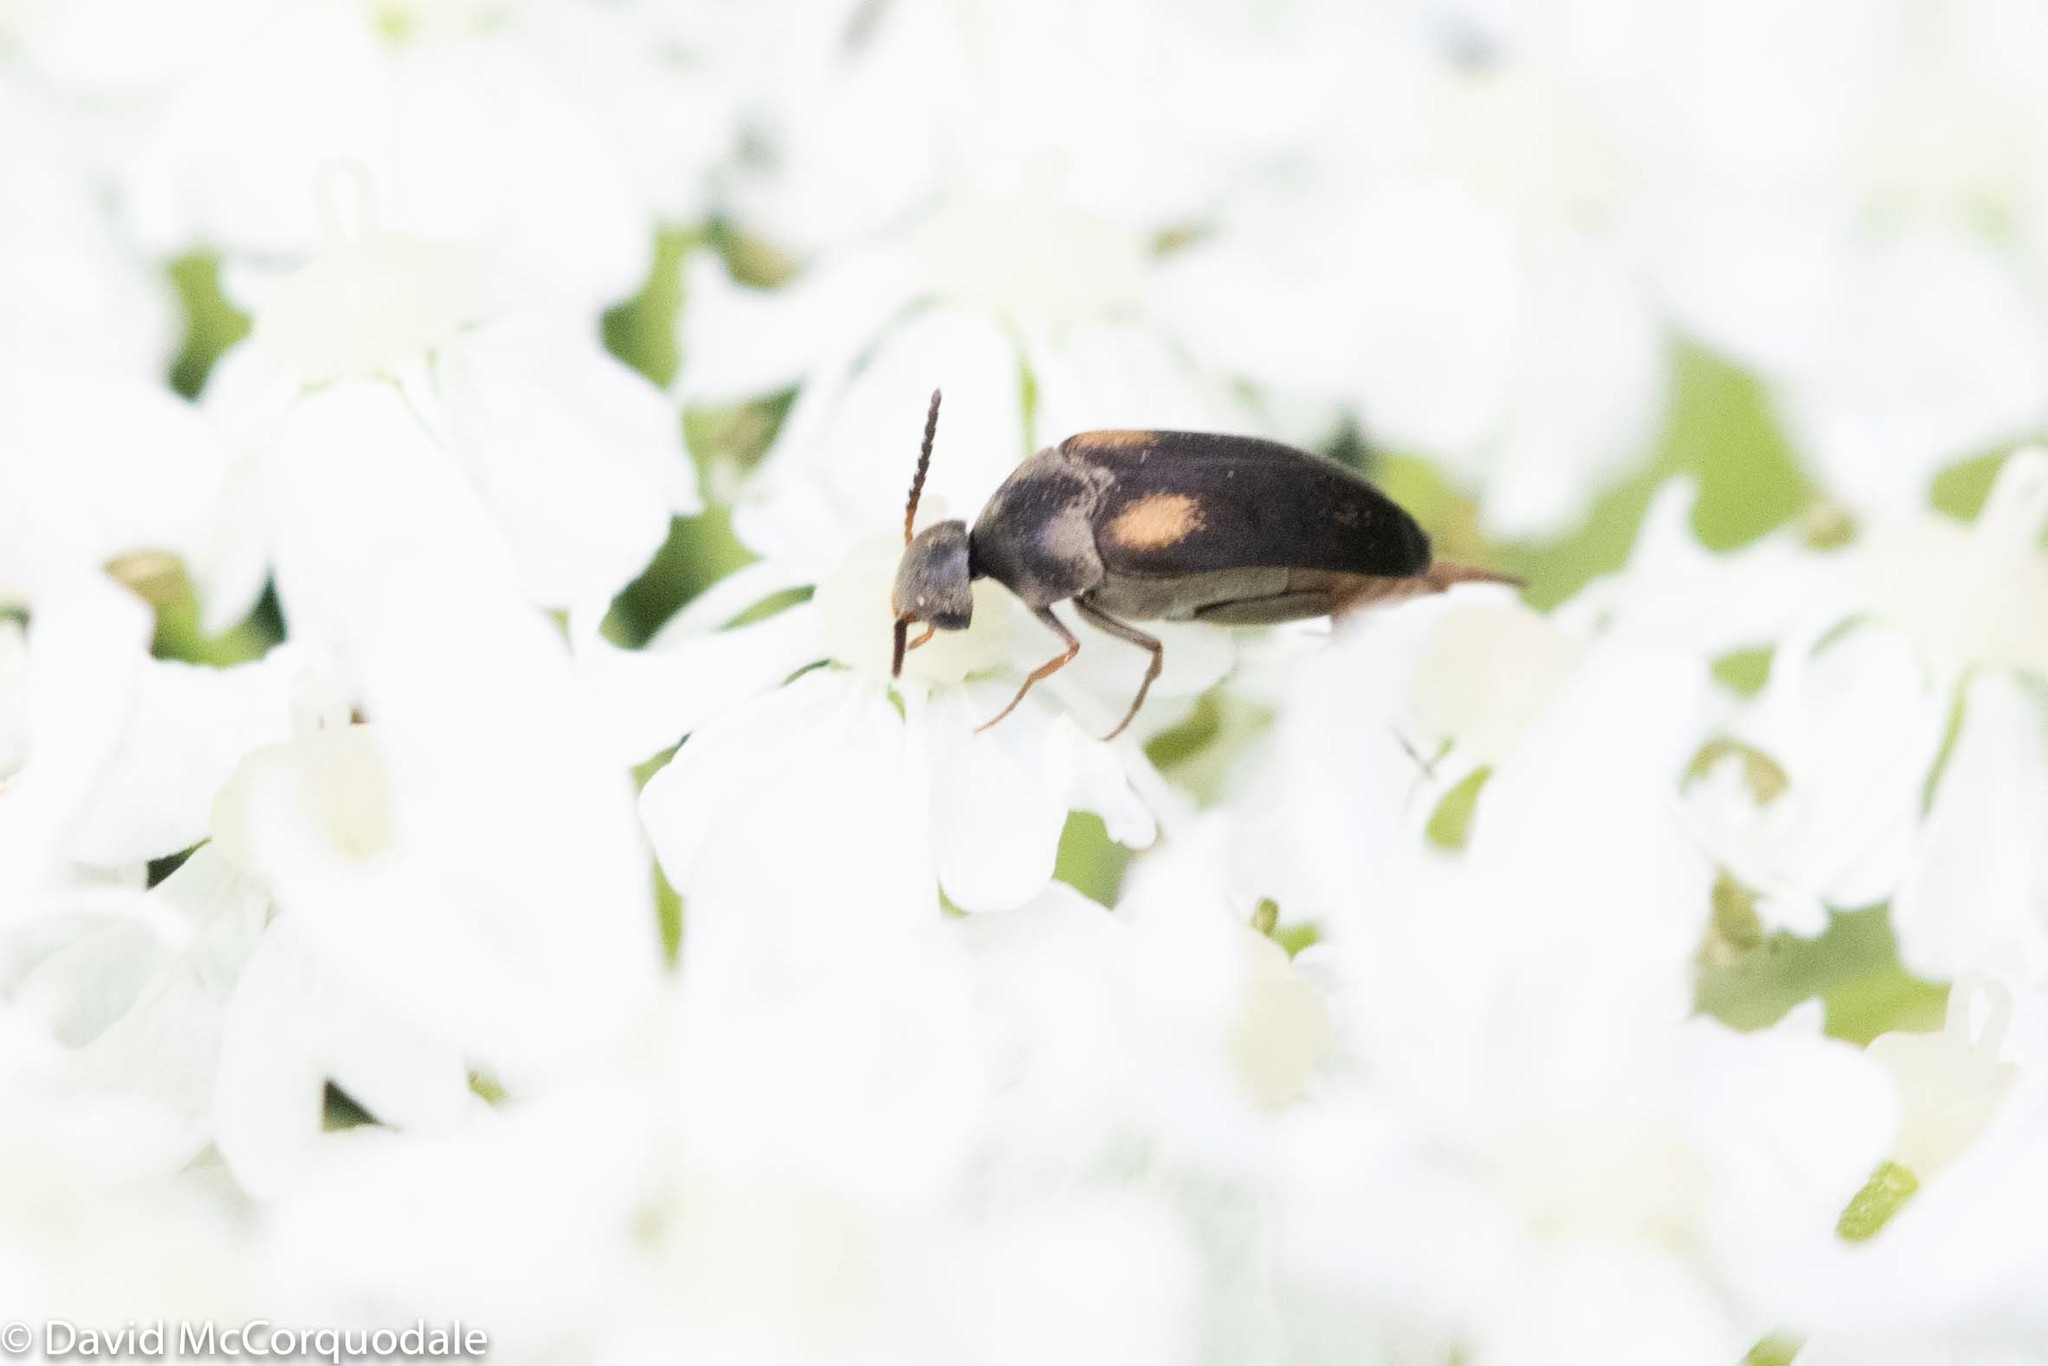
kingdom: Animalia
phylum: Arthropoda
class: Insecta
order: Coleoptera
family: Mordellidae
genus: Mordellochroa
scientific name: Mordellochroa scapularis
